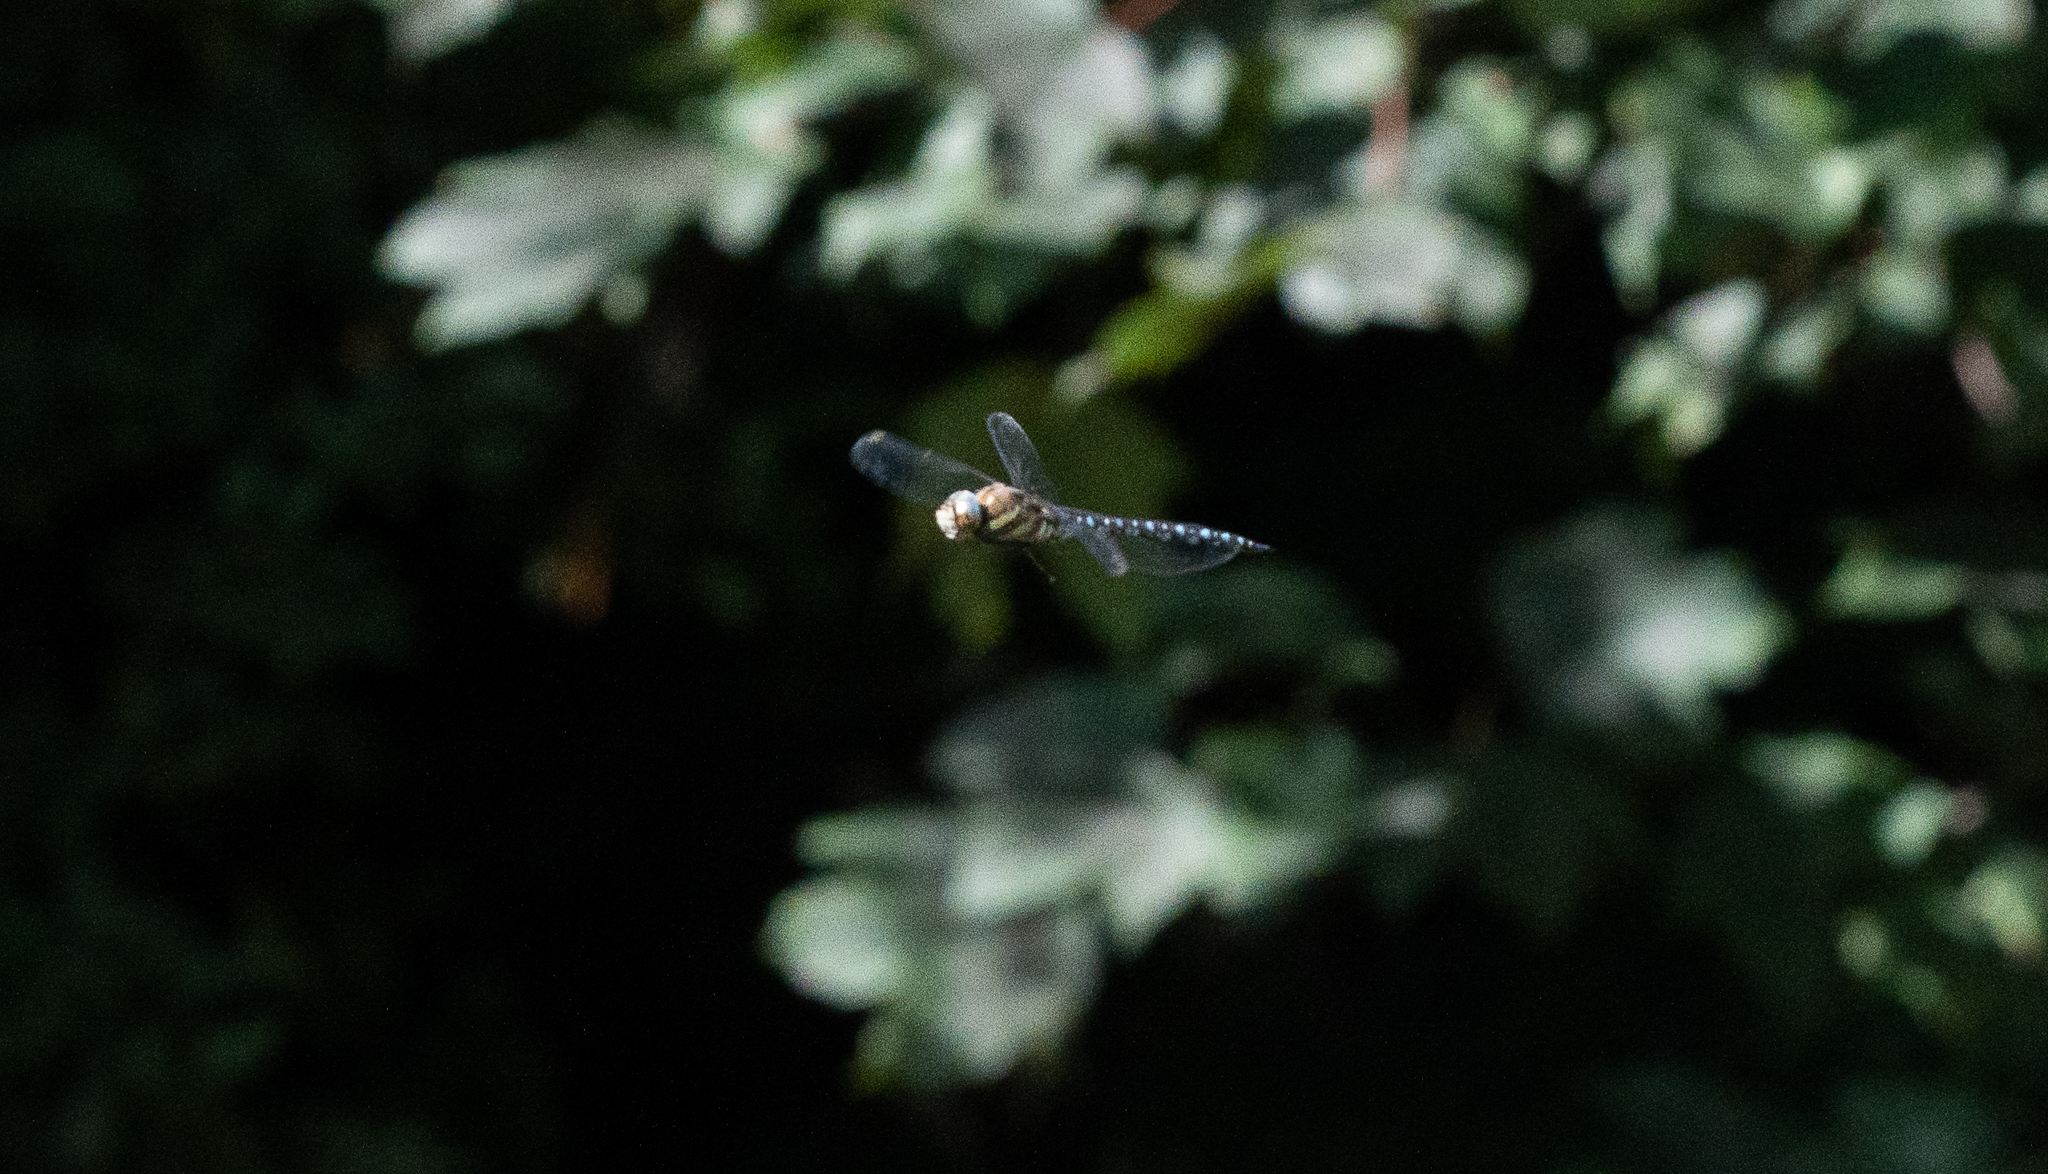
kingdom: Animalia
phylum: Arthropoda
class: Insecta
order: Odonata
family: Aeshnidae
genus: Aeshna
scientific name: Aeshna mixta
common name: Migrant hawker
